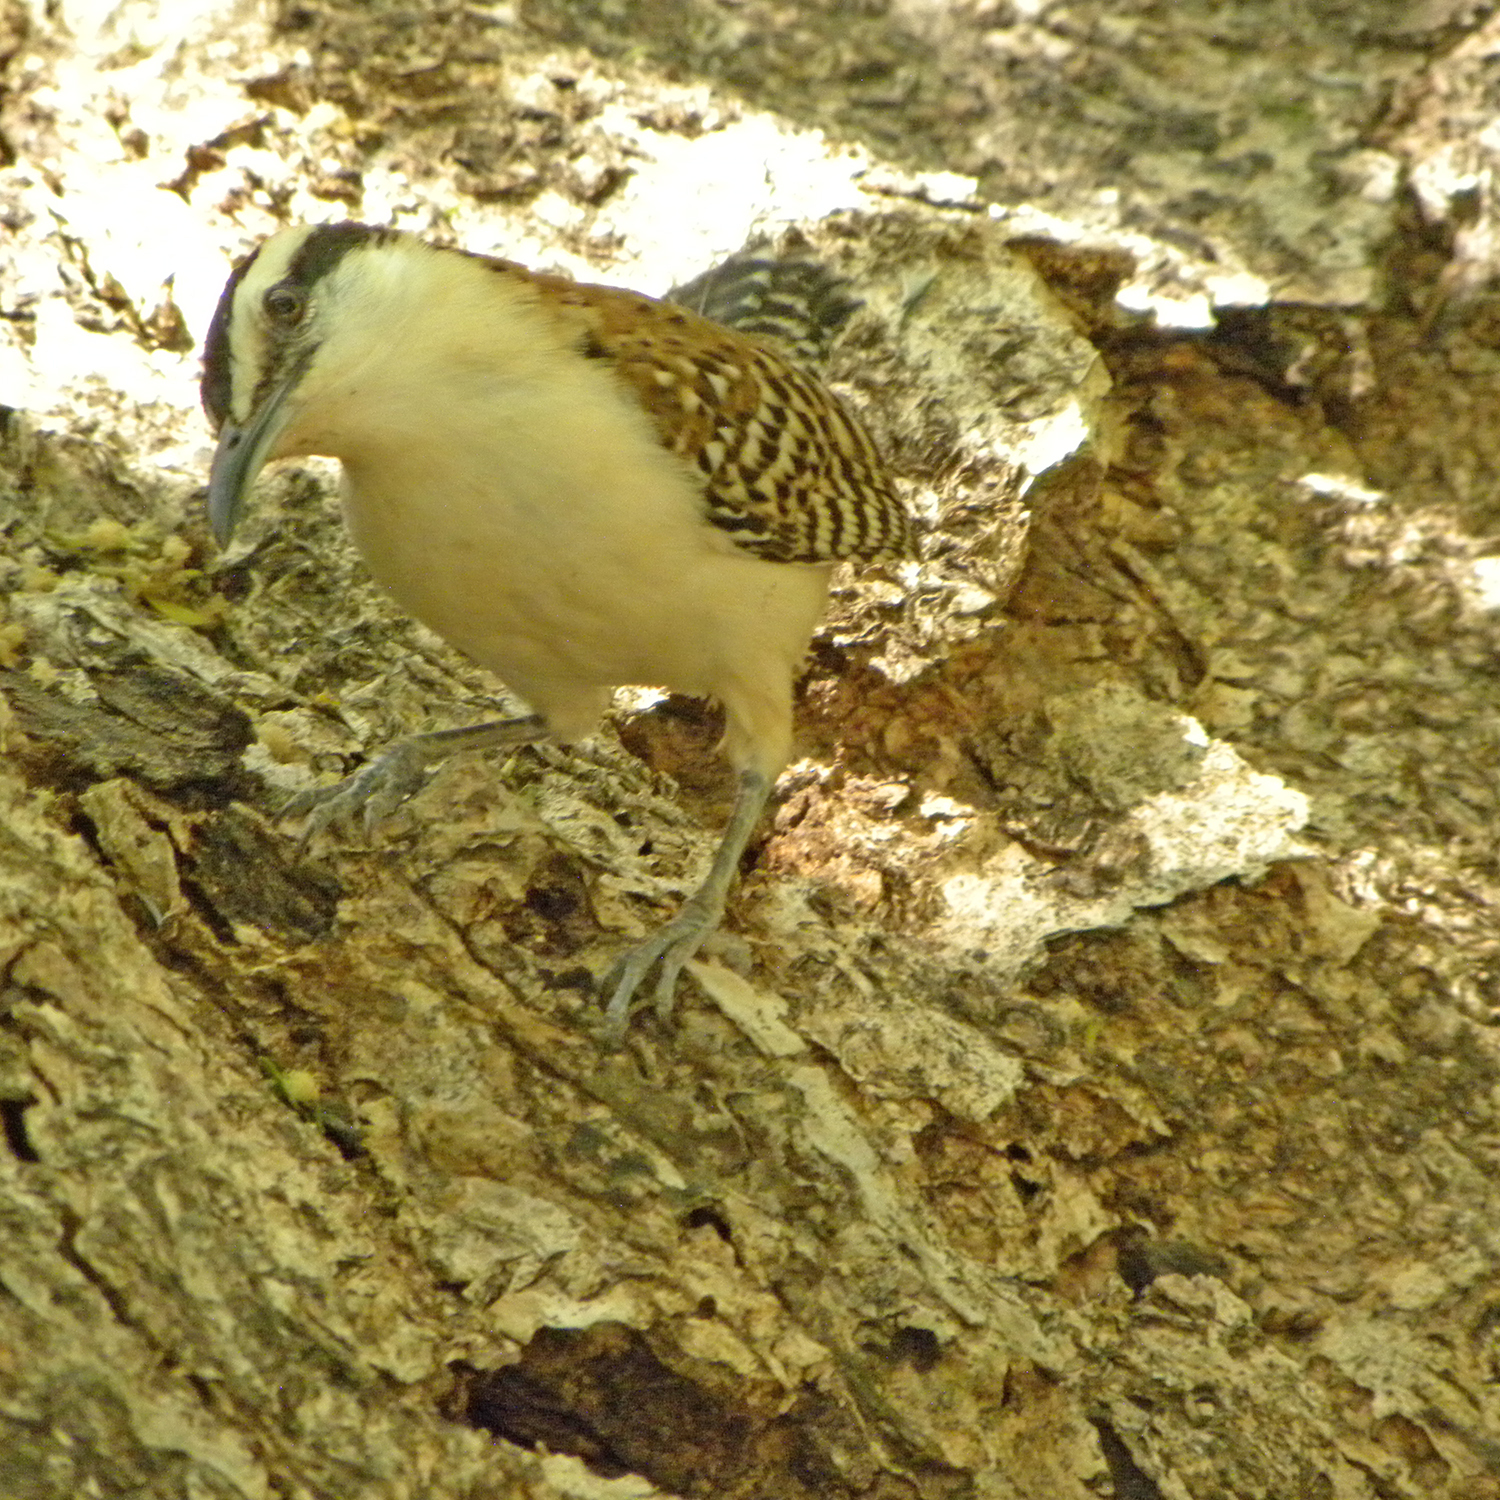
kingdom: Animalia
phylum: Chordata
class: Aves
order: Passeriformes
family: Troglodytidae
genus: Campylorhynchus
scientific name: Campylorhynchus rufinucha
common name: Rufous-naped wren
